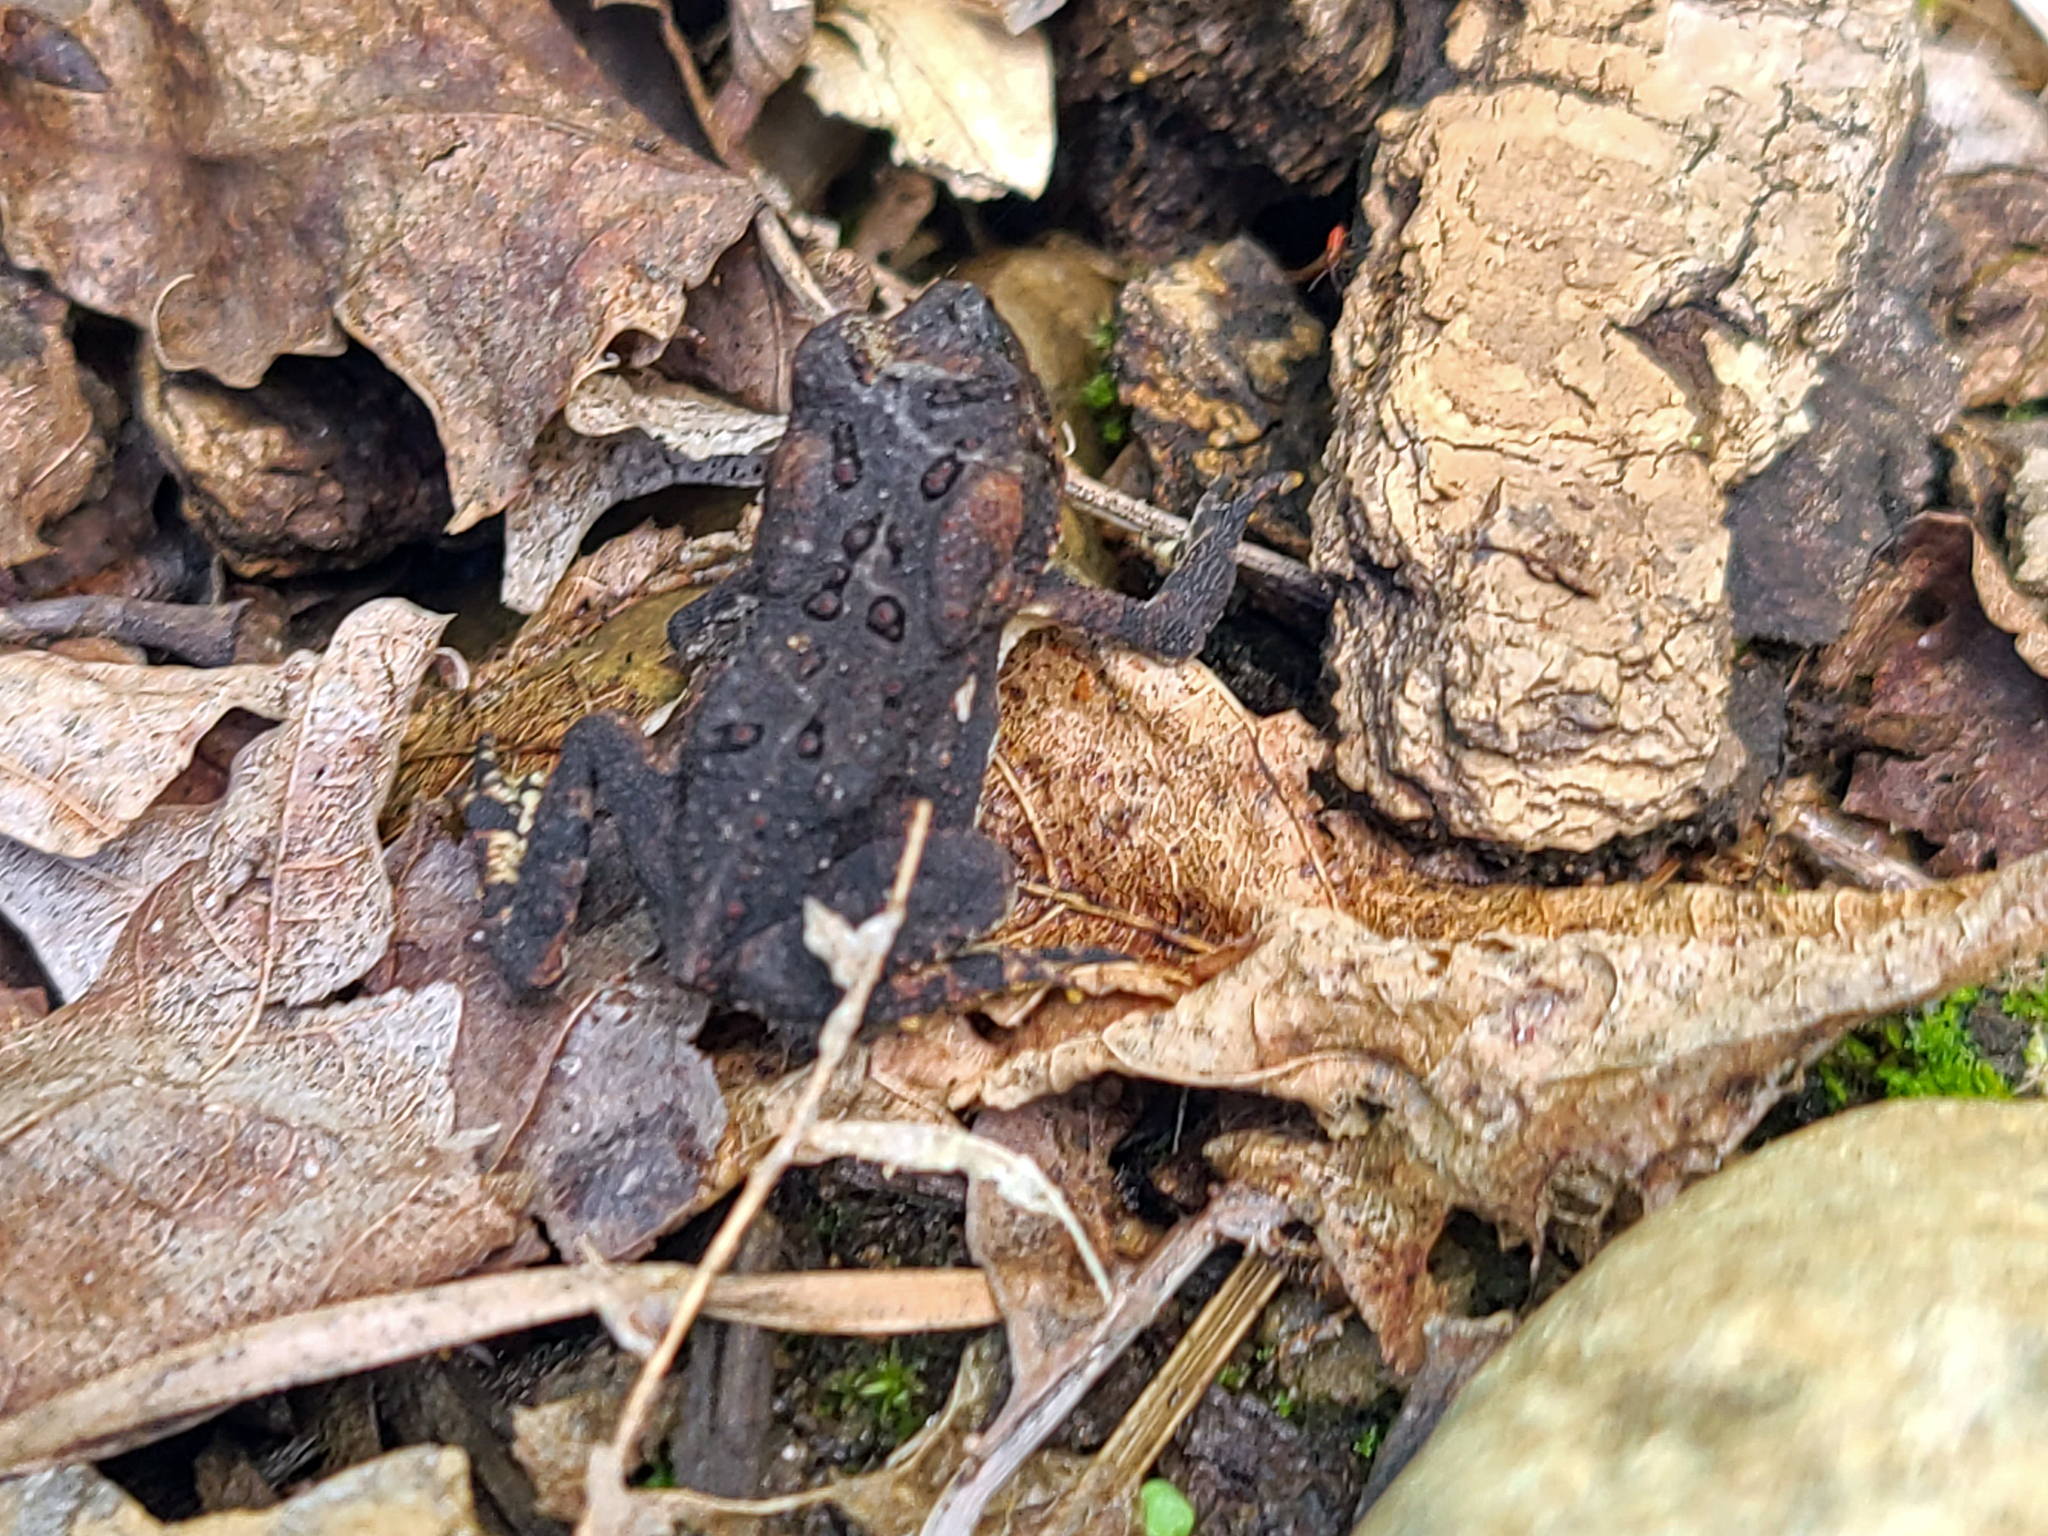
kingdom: Animalia
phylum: Chordata
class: Amphibia
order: Anura
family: Bufonidae
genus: Anaxyrus
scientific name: Anaxyrus americanus
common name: American toad
